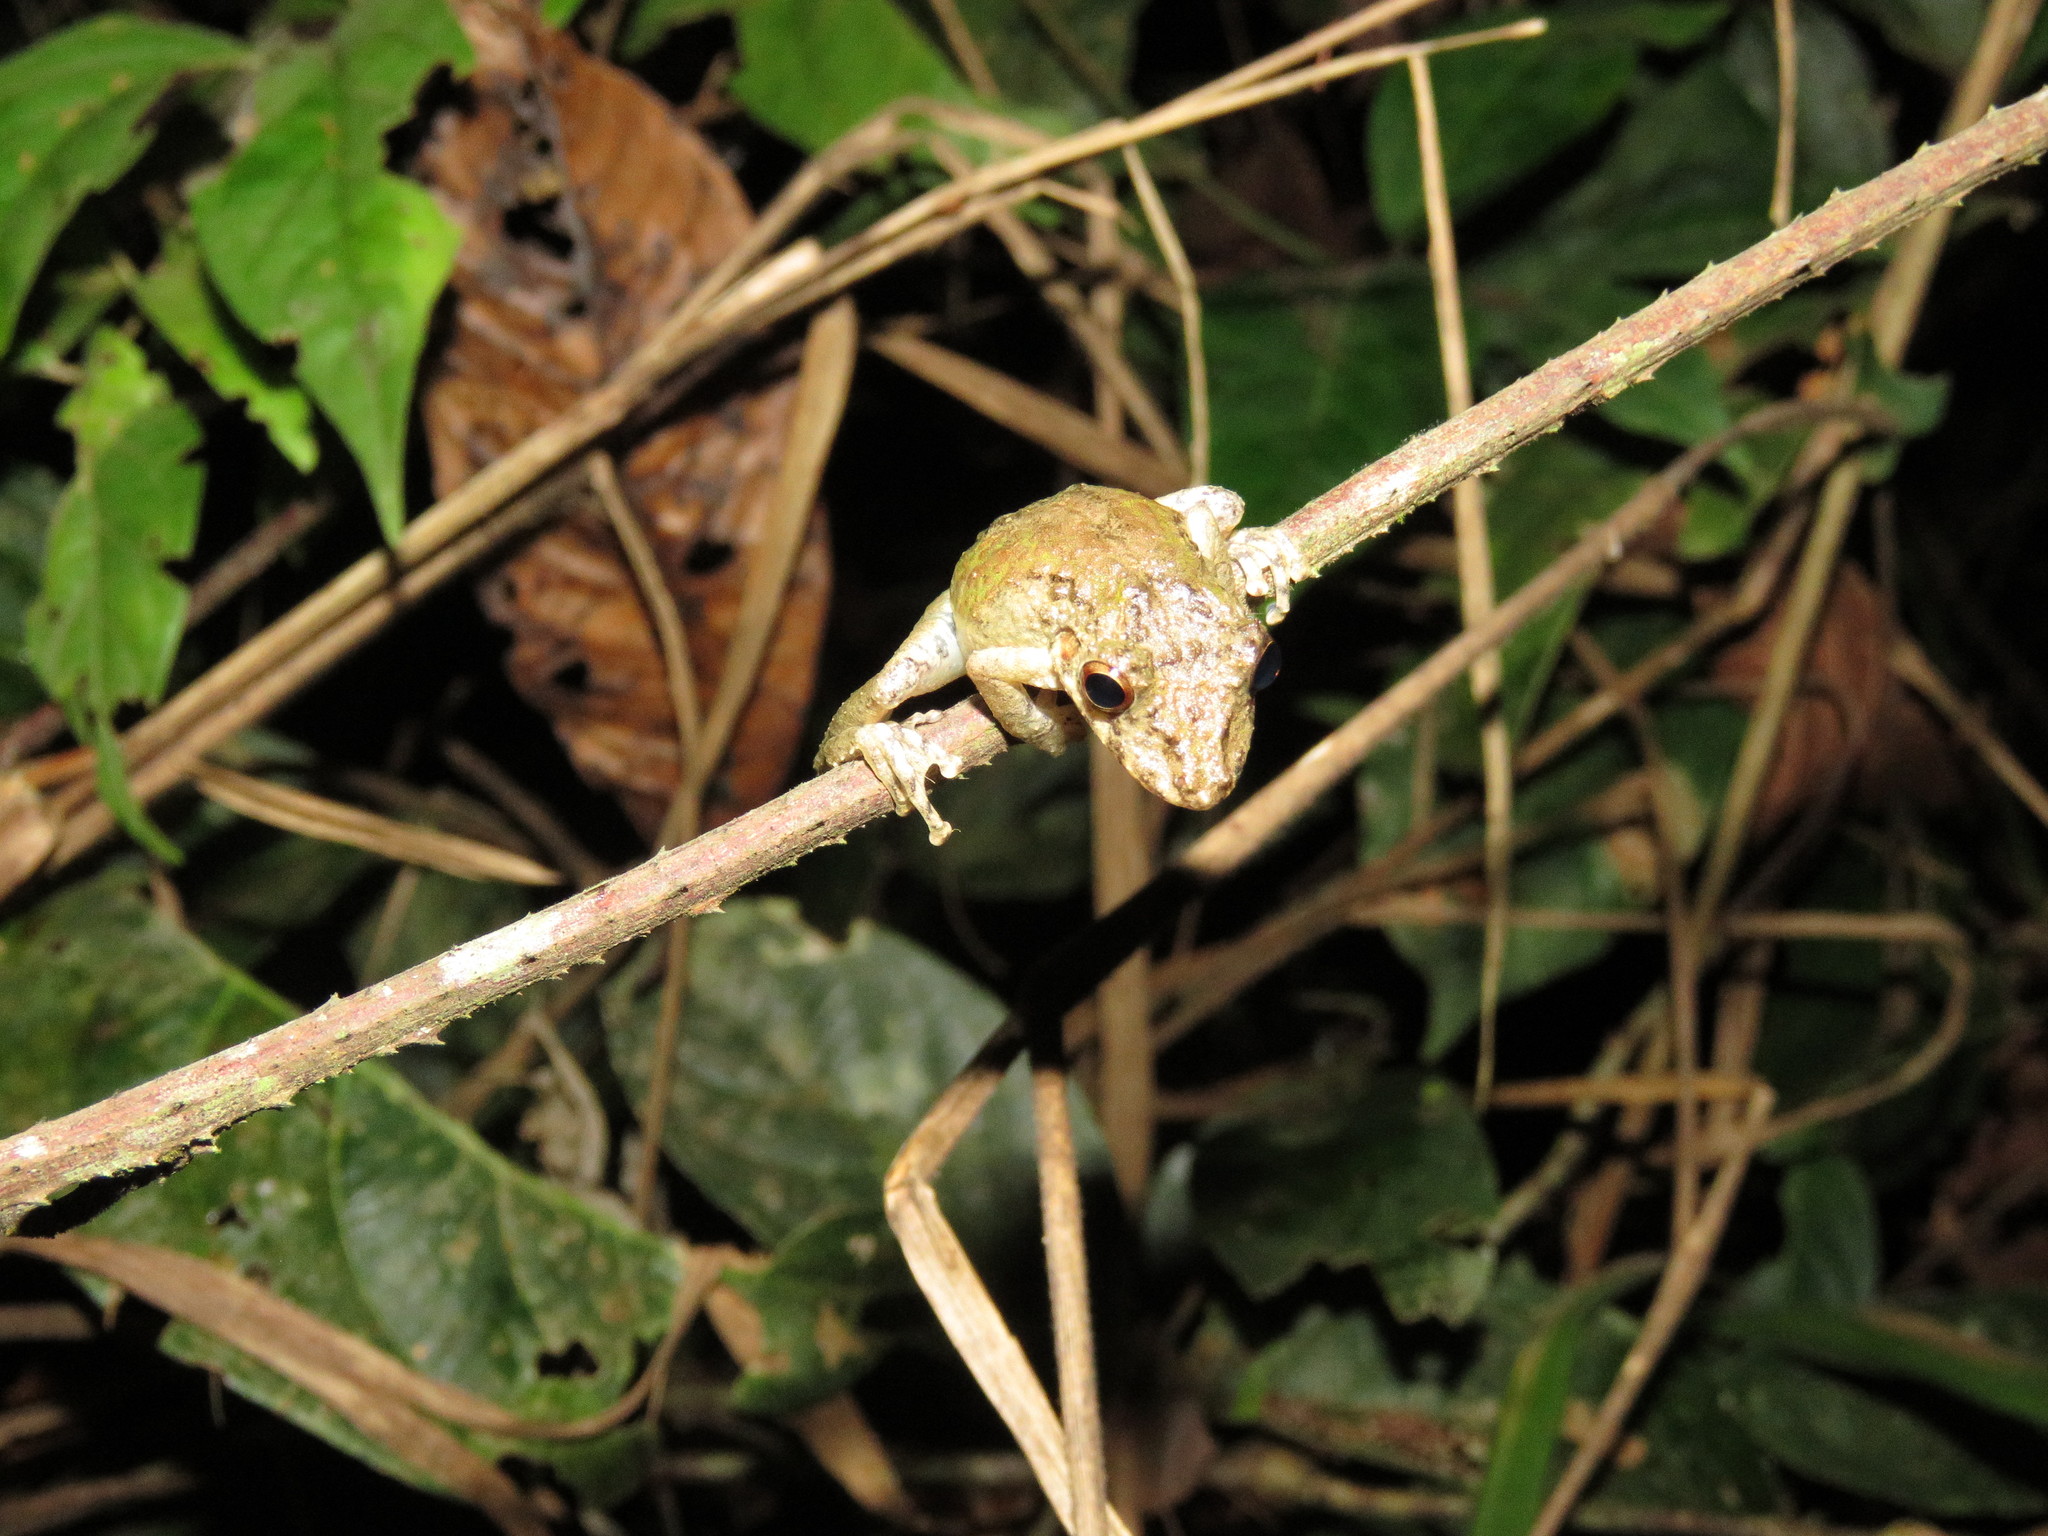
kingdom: Animalia
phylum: Chordata
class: Amphibia
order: Anura
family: Hylidae
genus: Scinax
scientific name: Scinax garbei
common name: Eirunepe snouted treefrog
